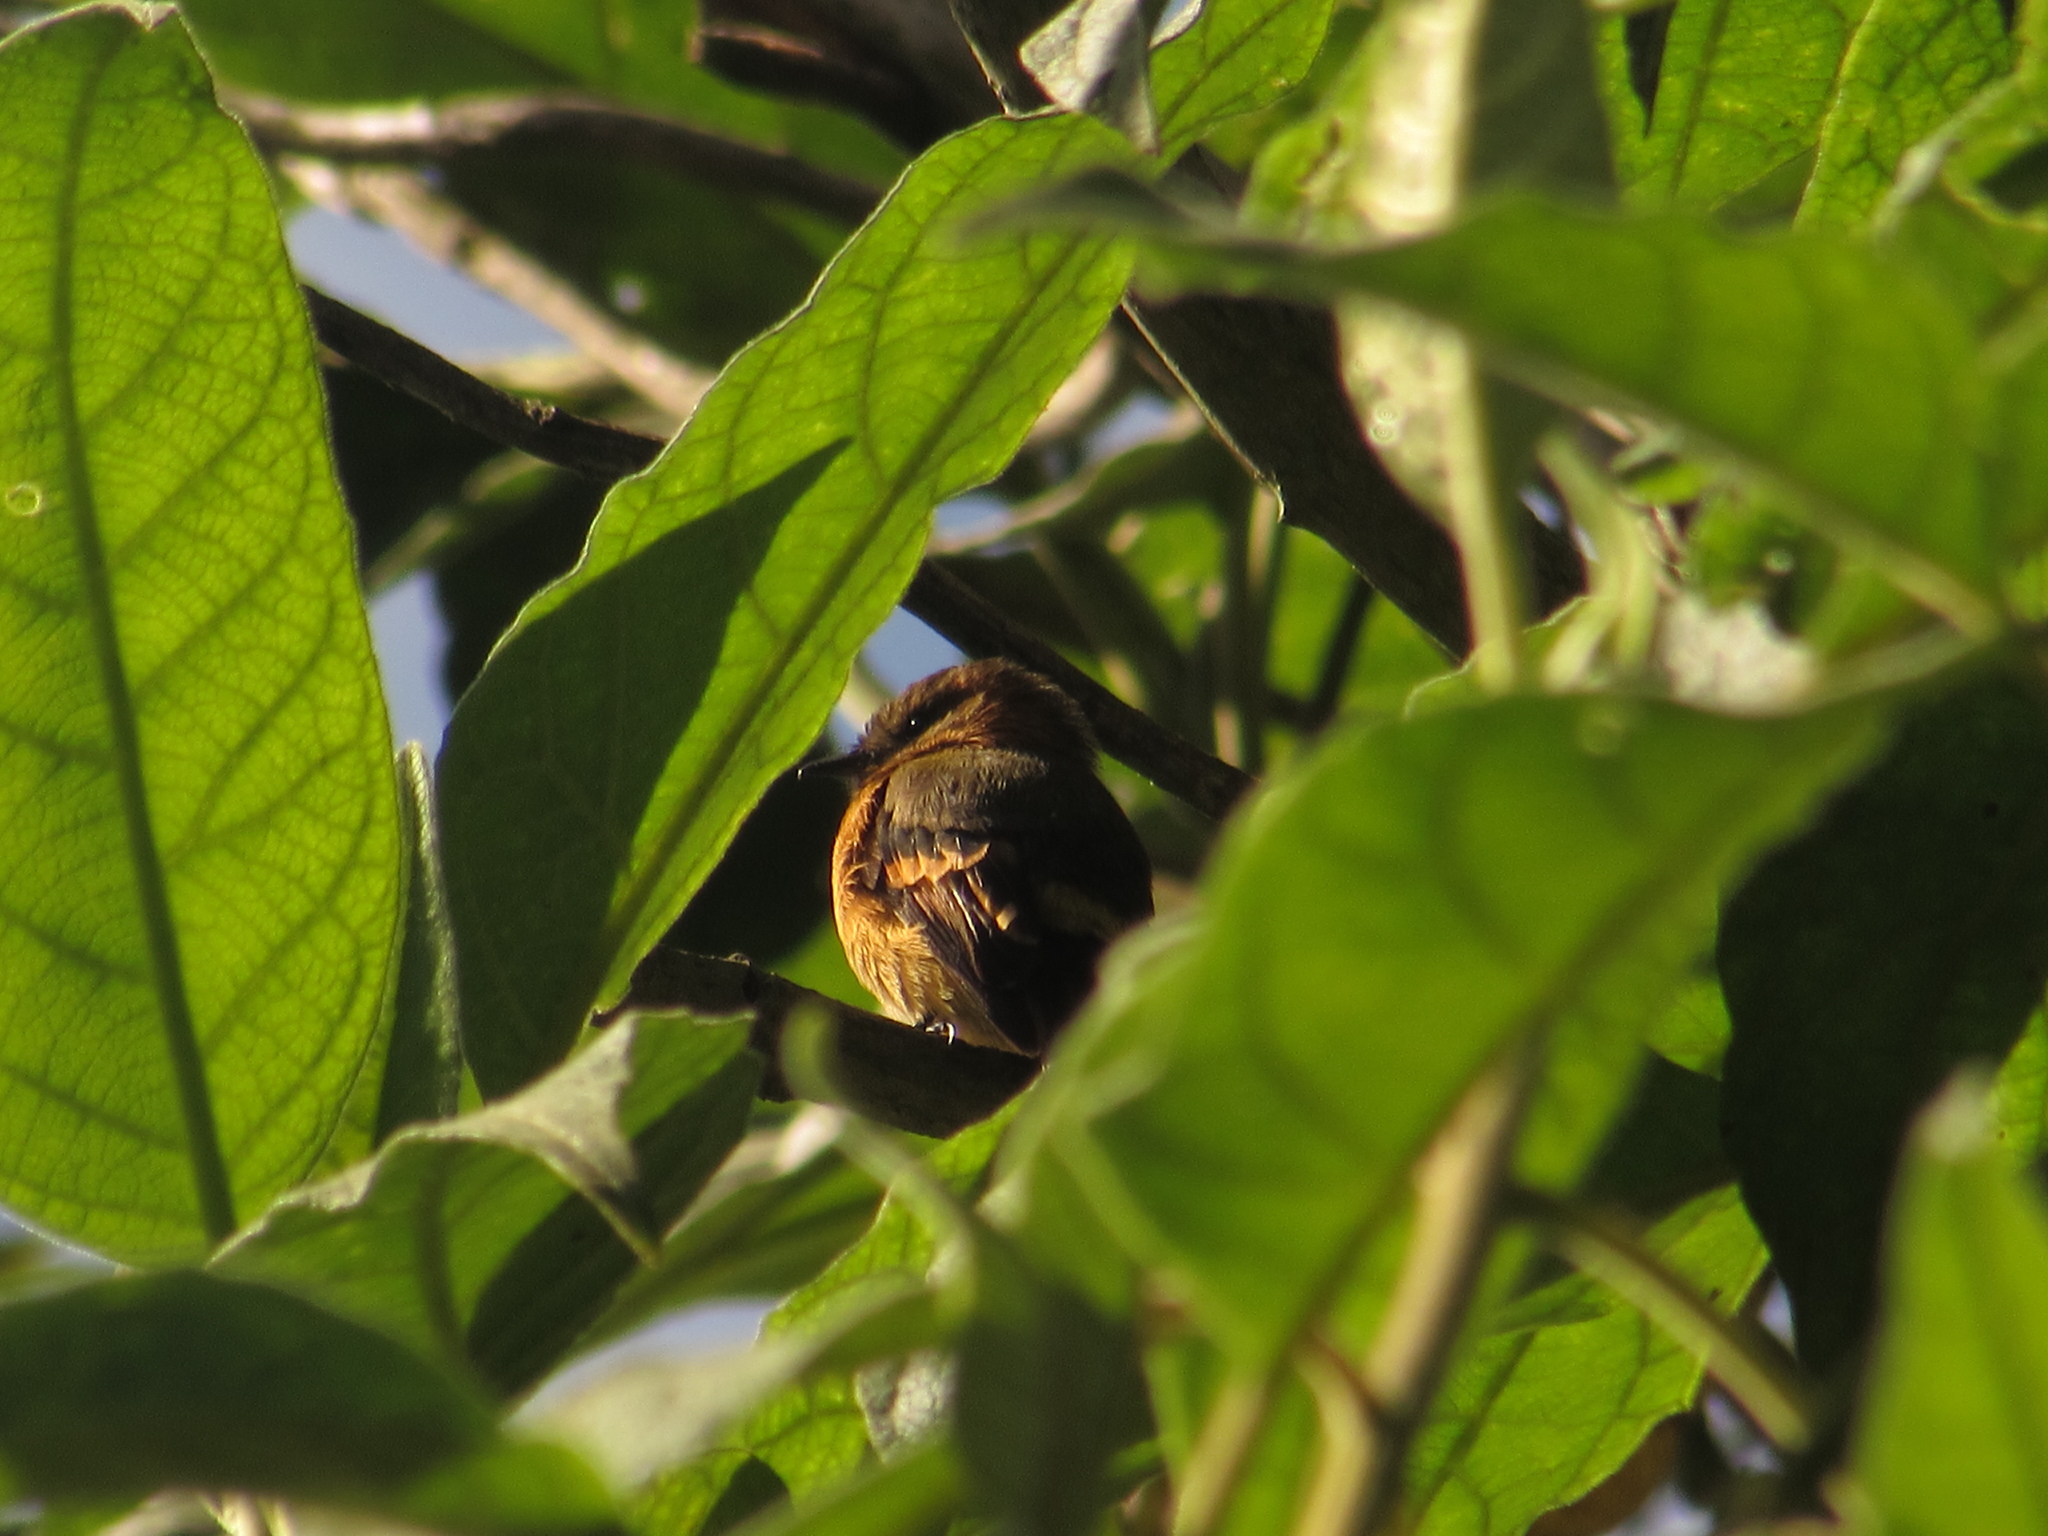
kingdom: Animalia
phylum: Chordata
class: Aves
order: Passeriformes
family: Tyrannidae
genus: Pyrrhomyias
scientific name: Pyrrhomyias cinnamomeus
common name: Cinnamon flycatcher
